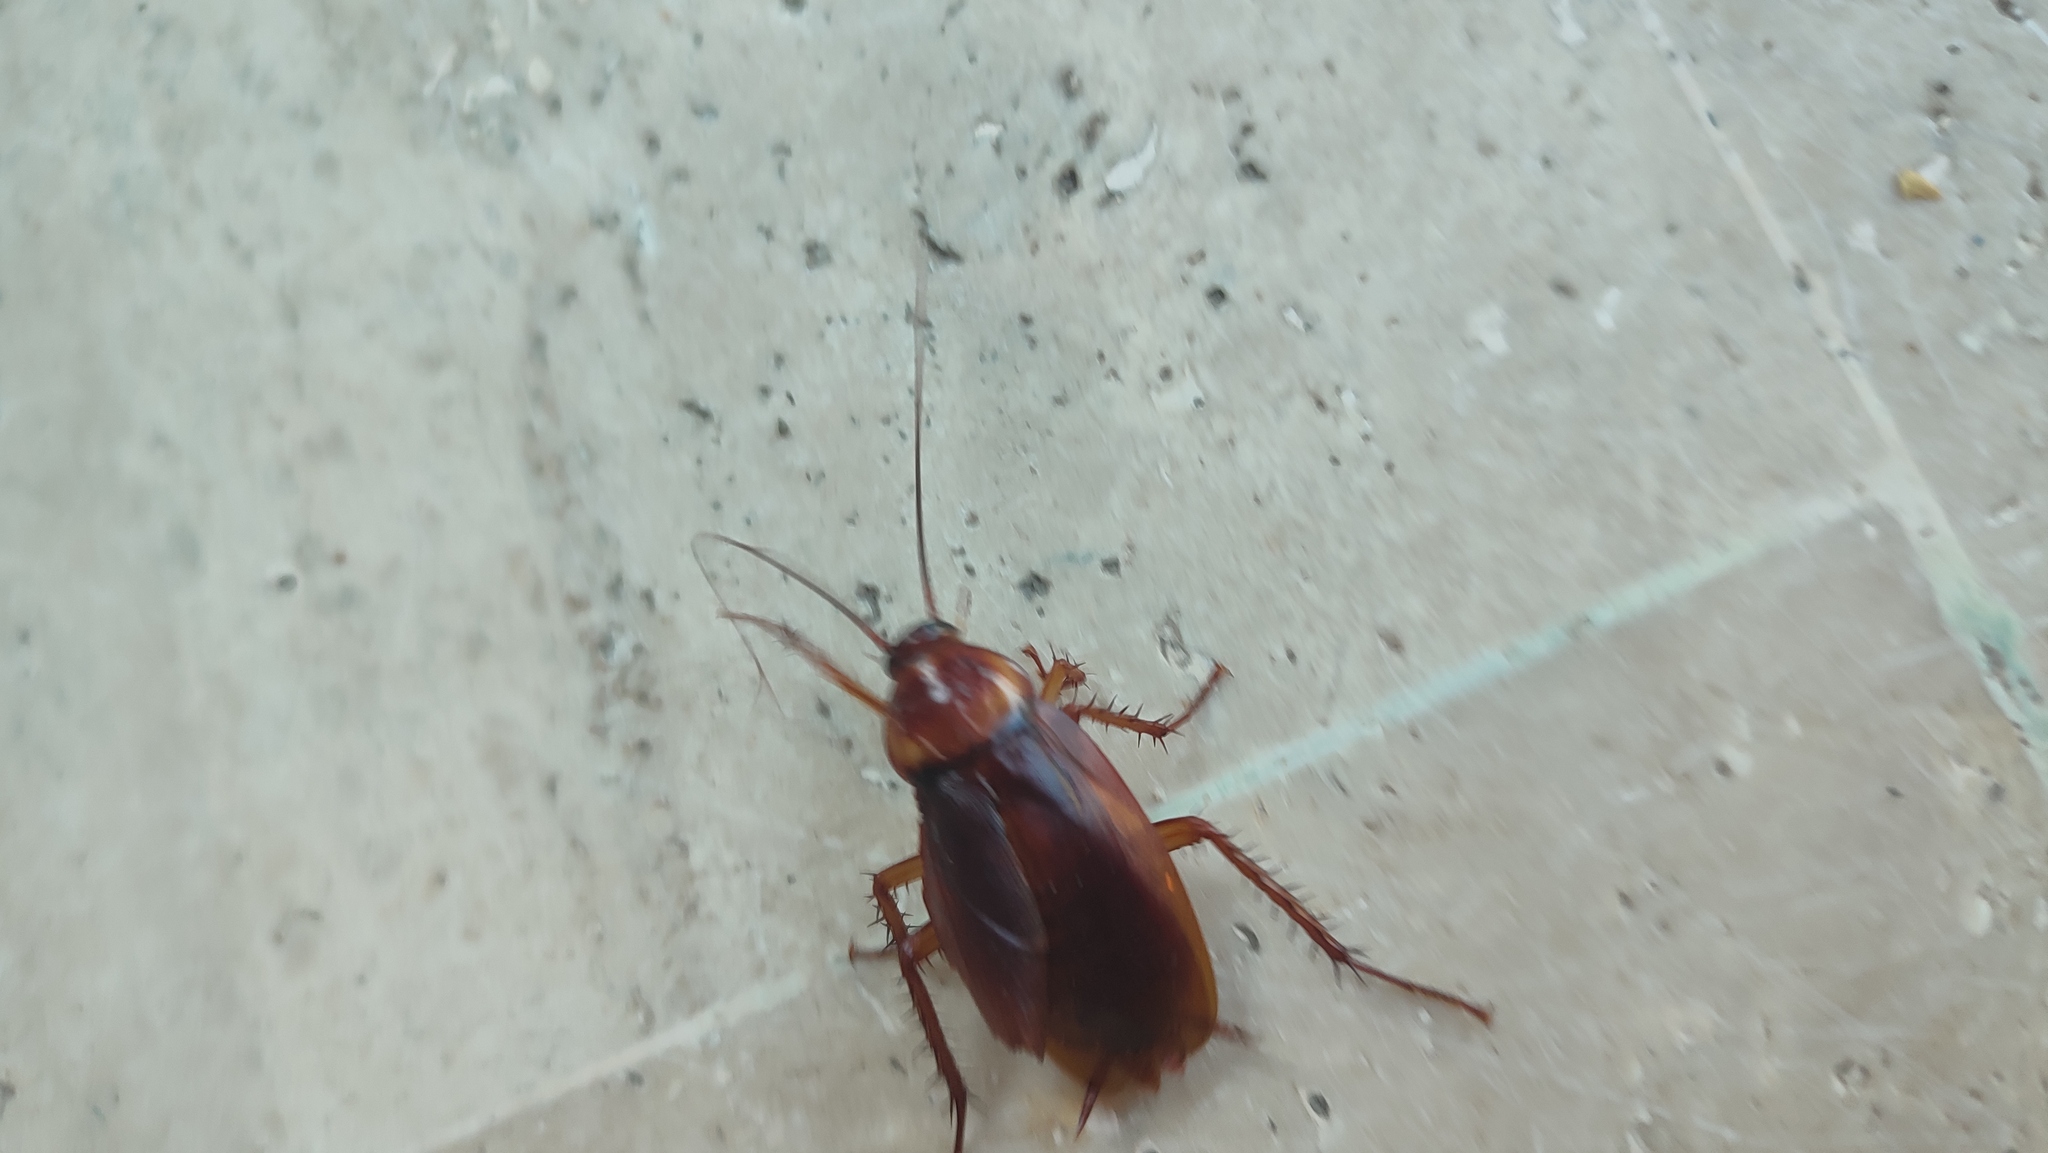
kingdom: Animalia
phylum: Arthropoda
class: Insecta
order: Blattodea
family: Blattidae
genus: Periplaneta
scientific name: Periplaneta americana
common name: American cockroach
